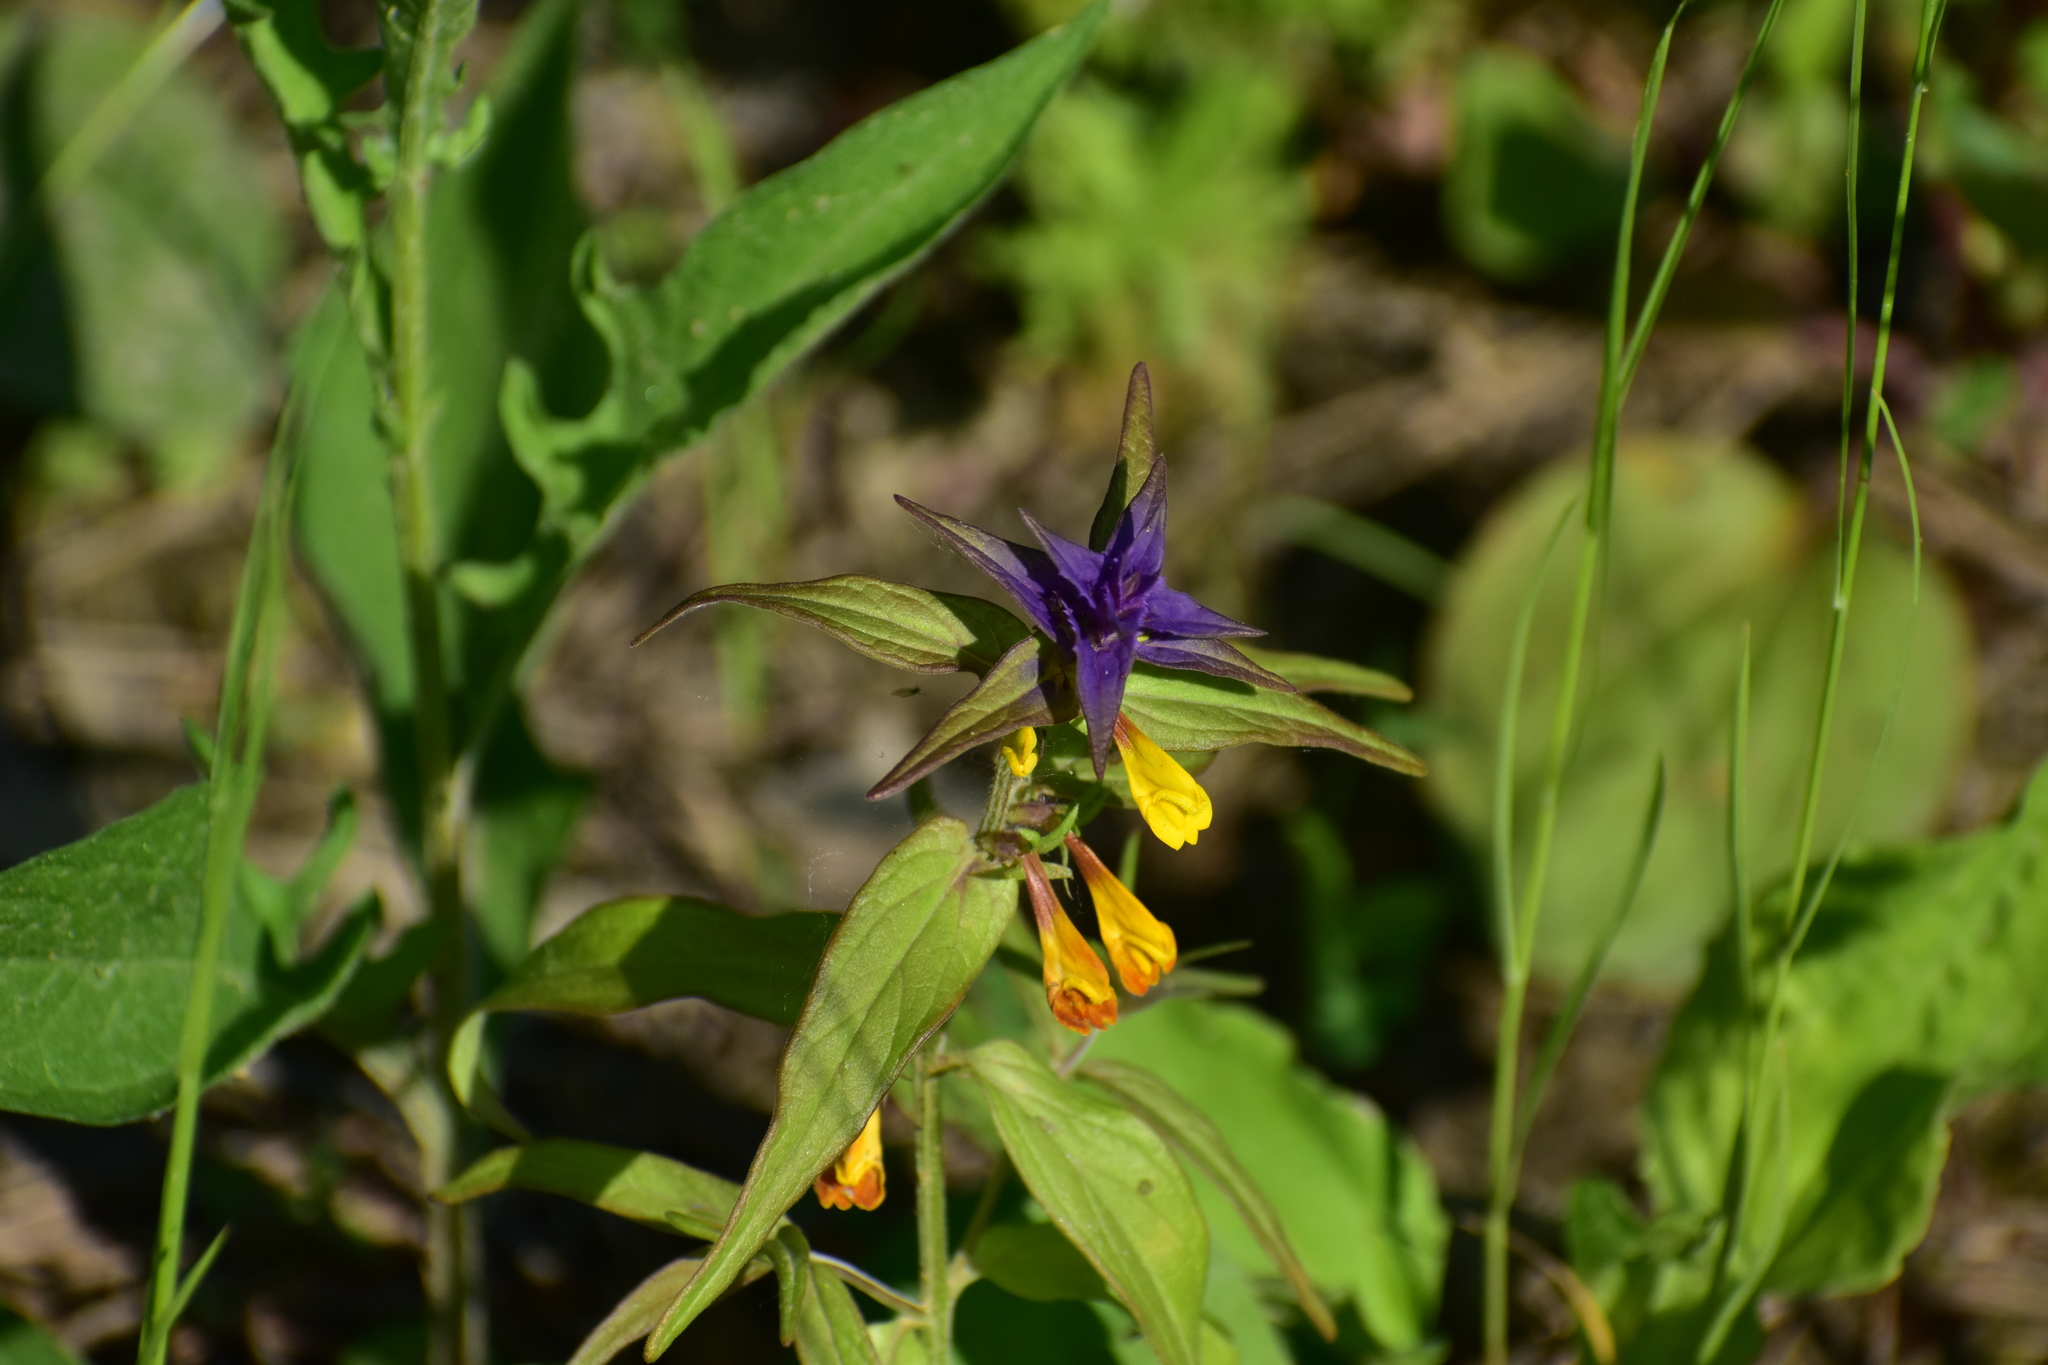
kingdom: Plantae
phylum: Tracheophyta
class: Magnoliopsida
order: Lamiales
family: Orobanchaceae
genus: Melampyrum
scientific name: Melampyrum nemorosum
